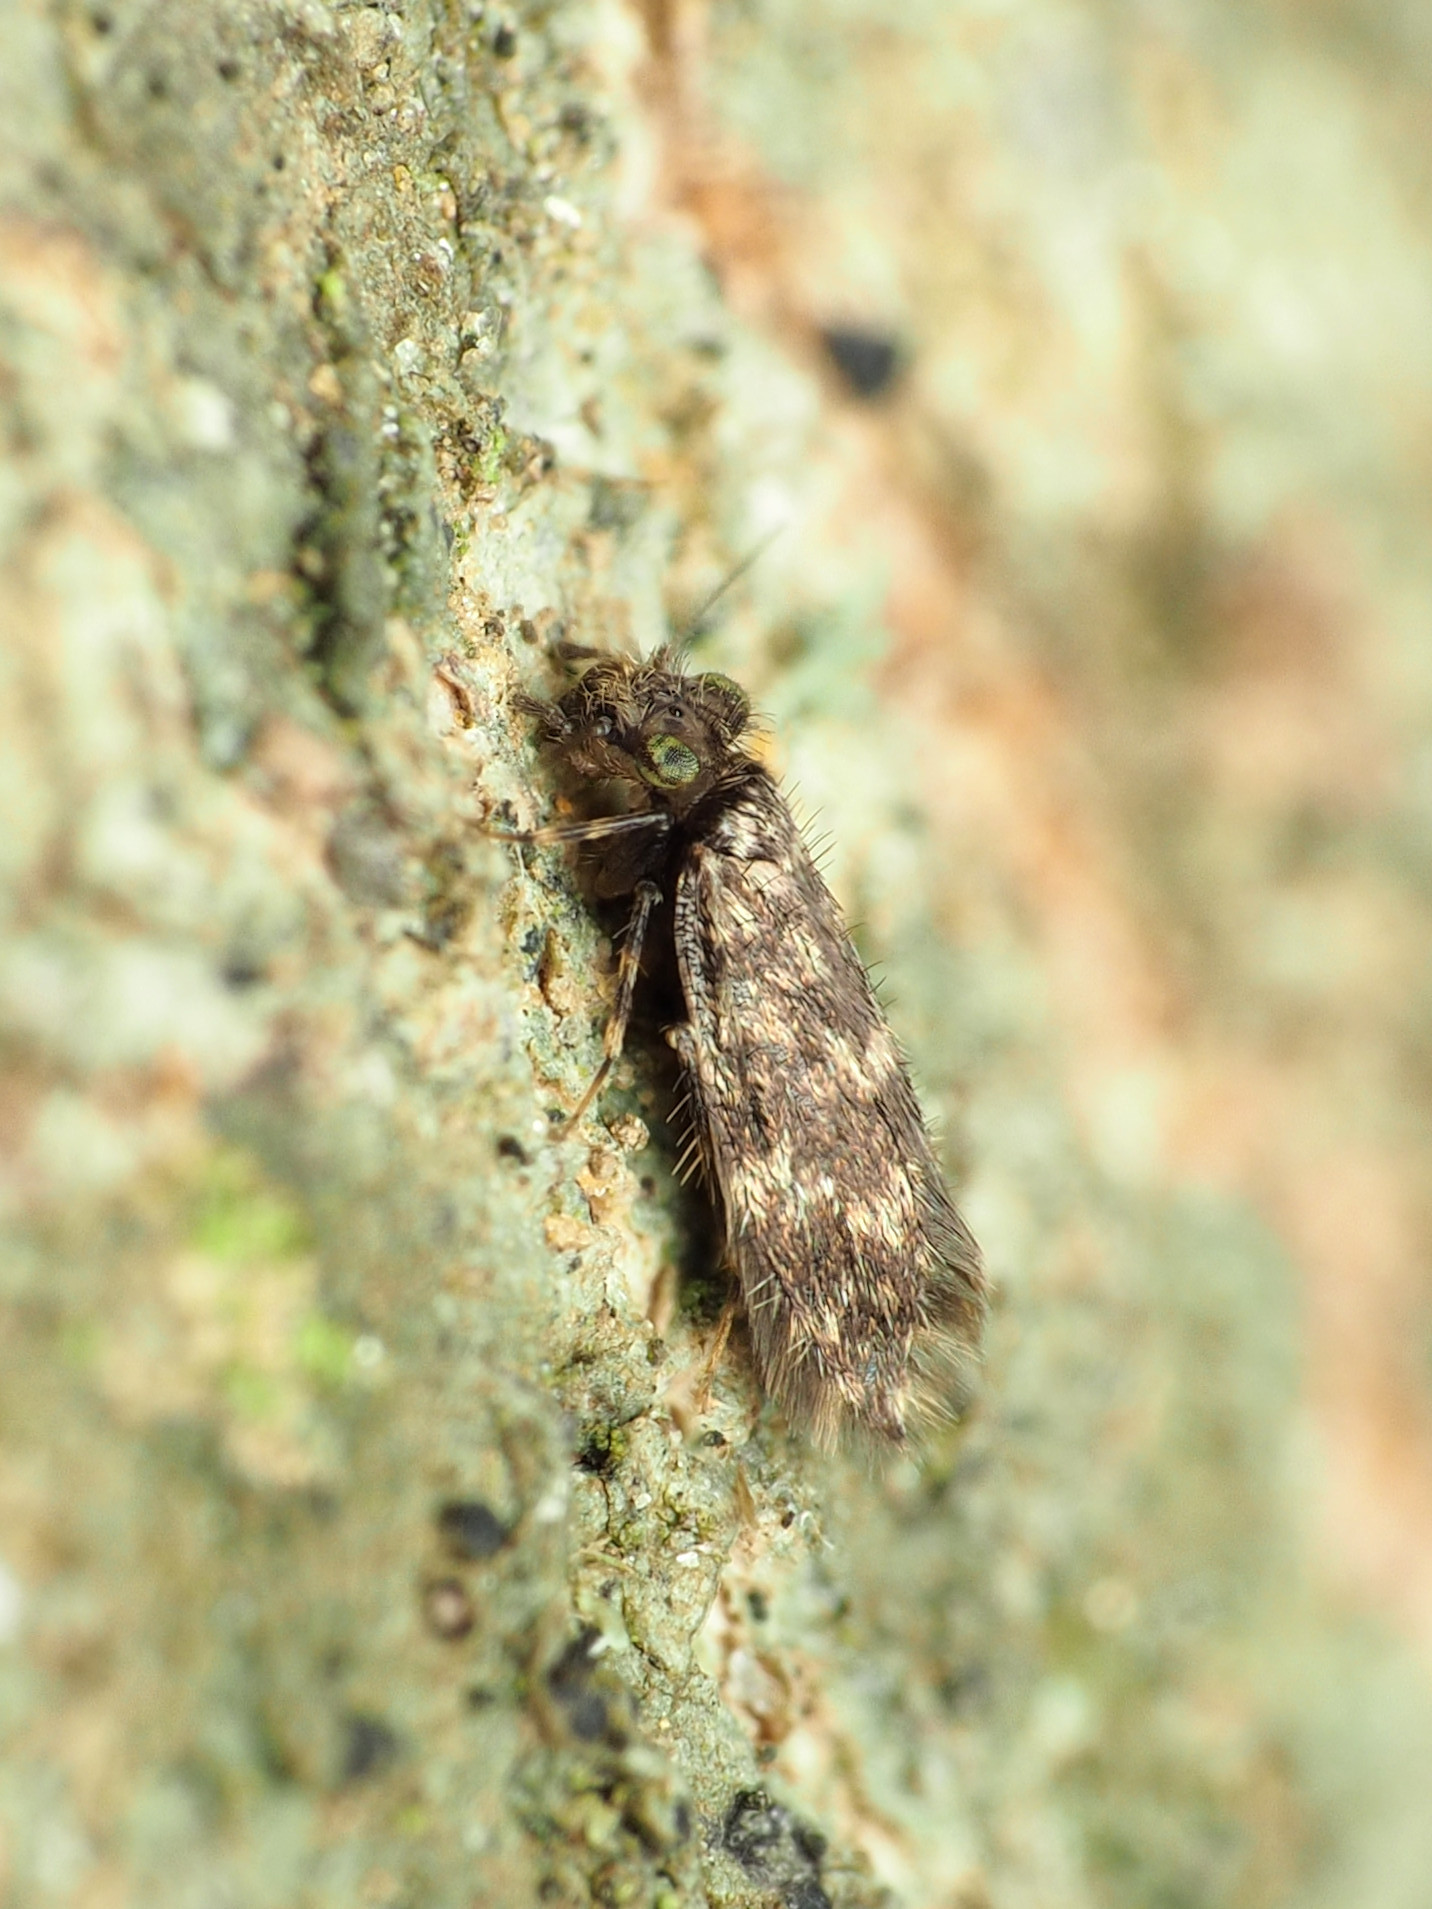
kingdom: Animalia
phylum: Arthropoda
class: Insecta
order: Psocodea
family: Lepidopsocidae
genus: Echmepteryx
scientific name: Echmepteryx hageni
